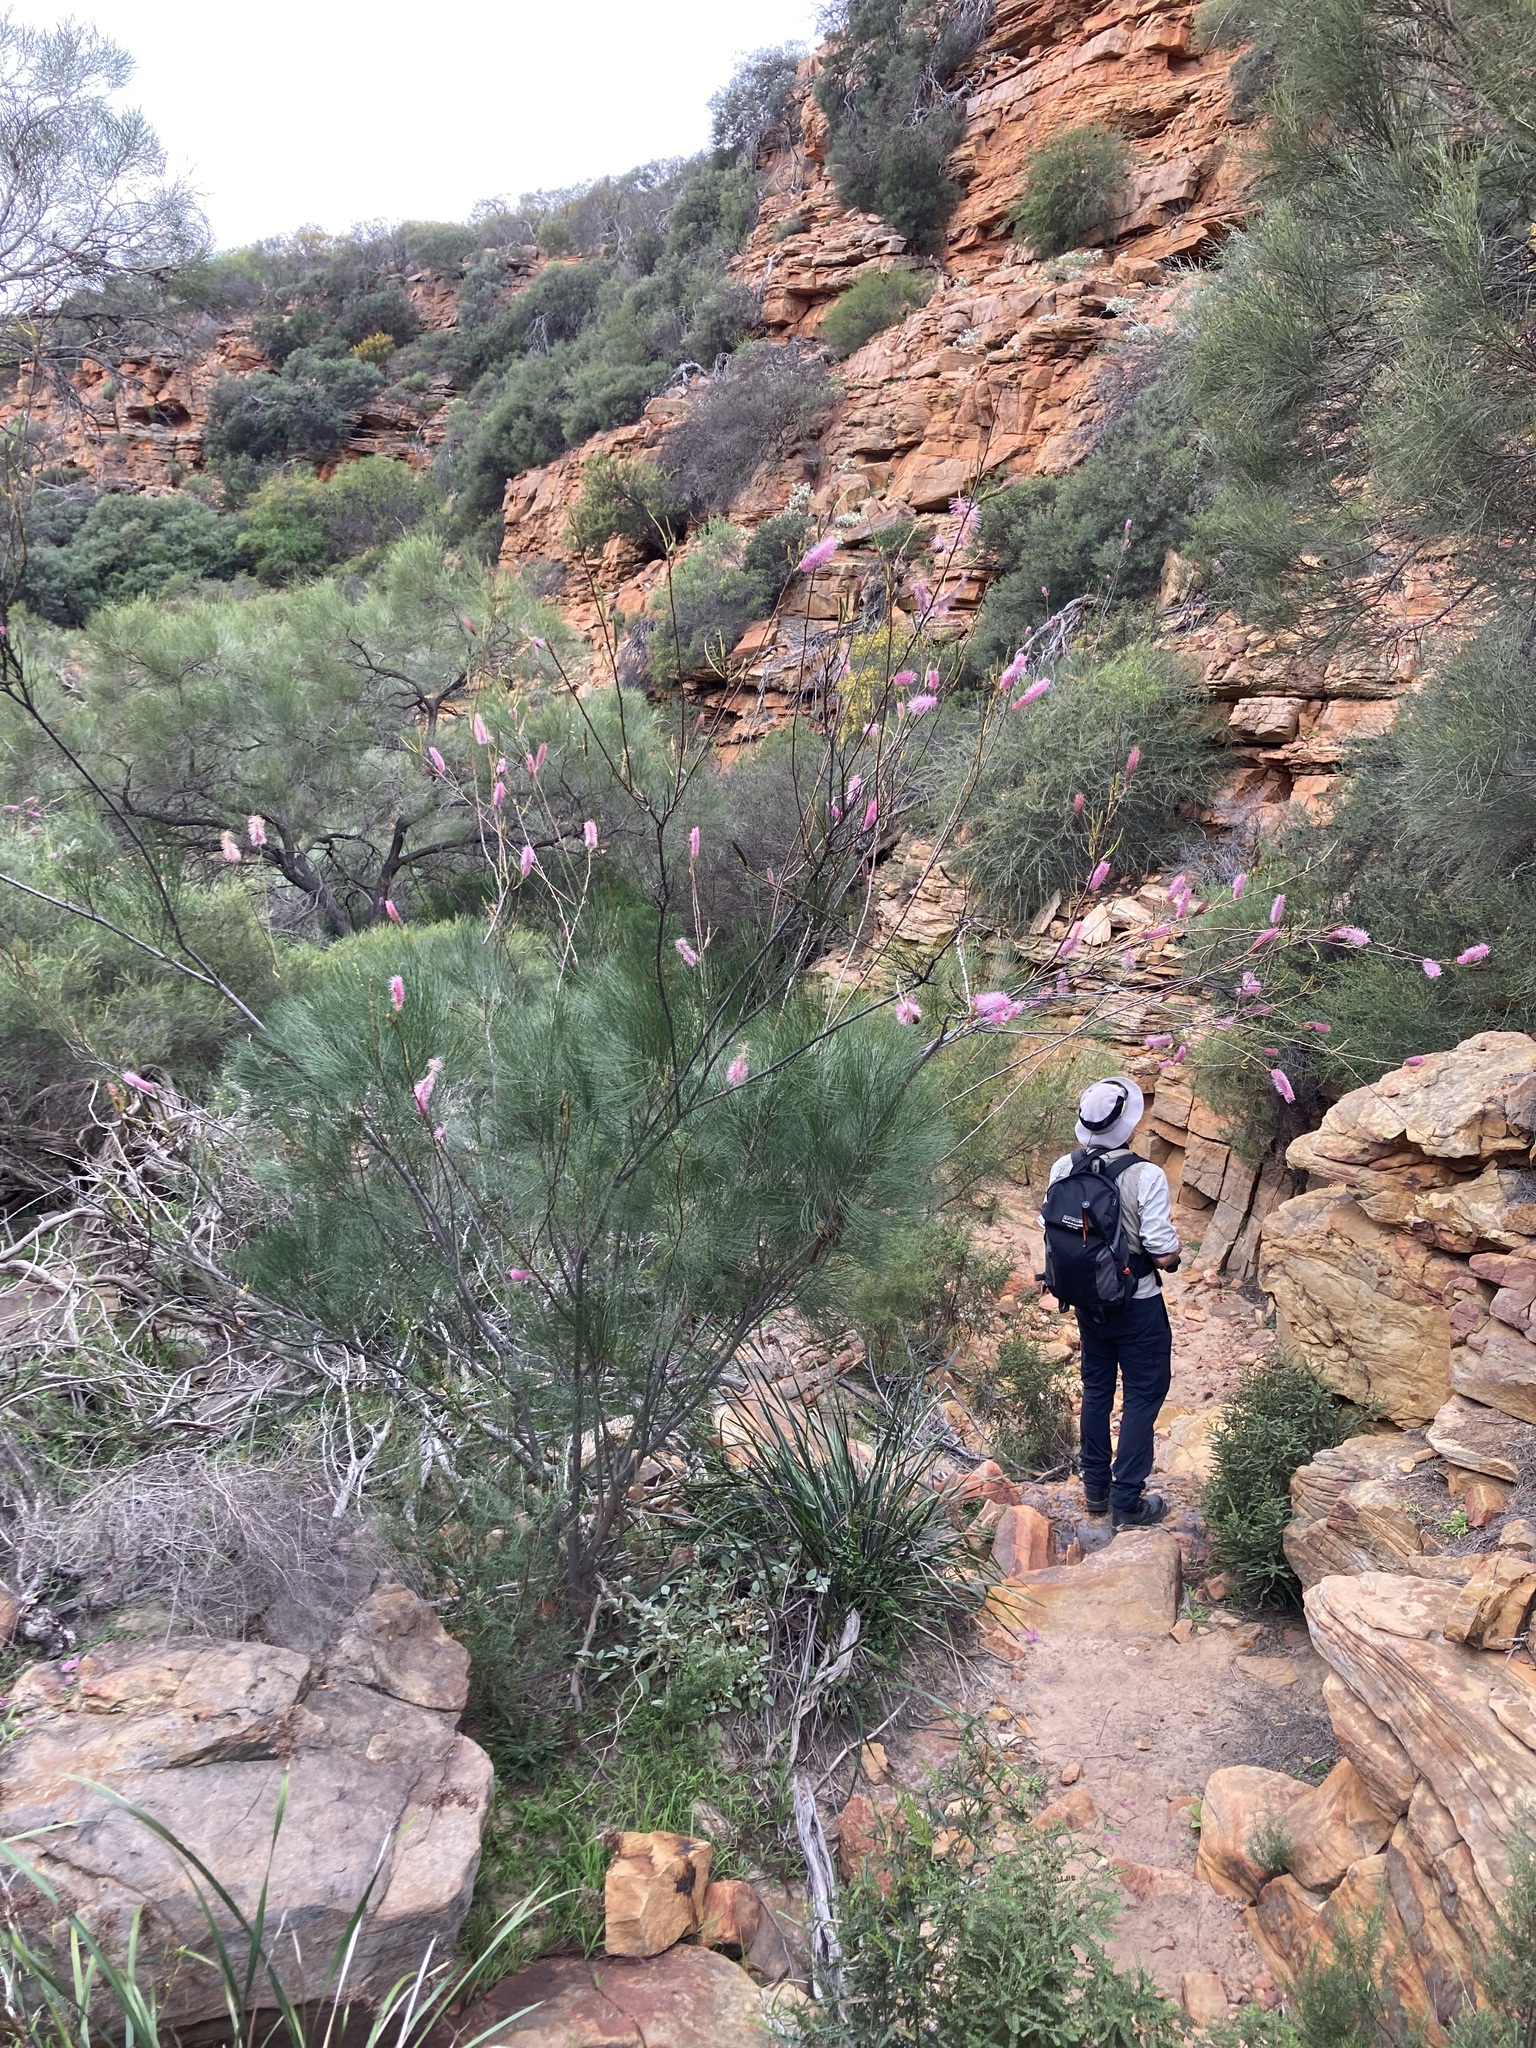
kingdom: Plantae
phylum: Tracheophyta
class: Magnoliopsida
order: Proteales
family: Proteaceae
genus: Grevillea
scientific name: Grevillea petrophiloides
